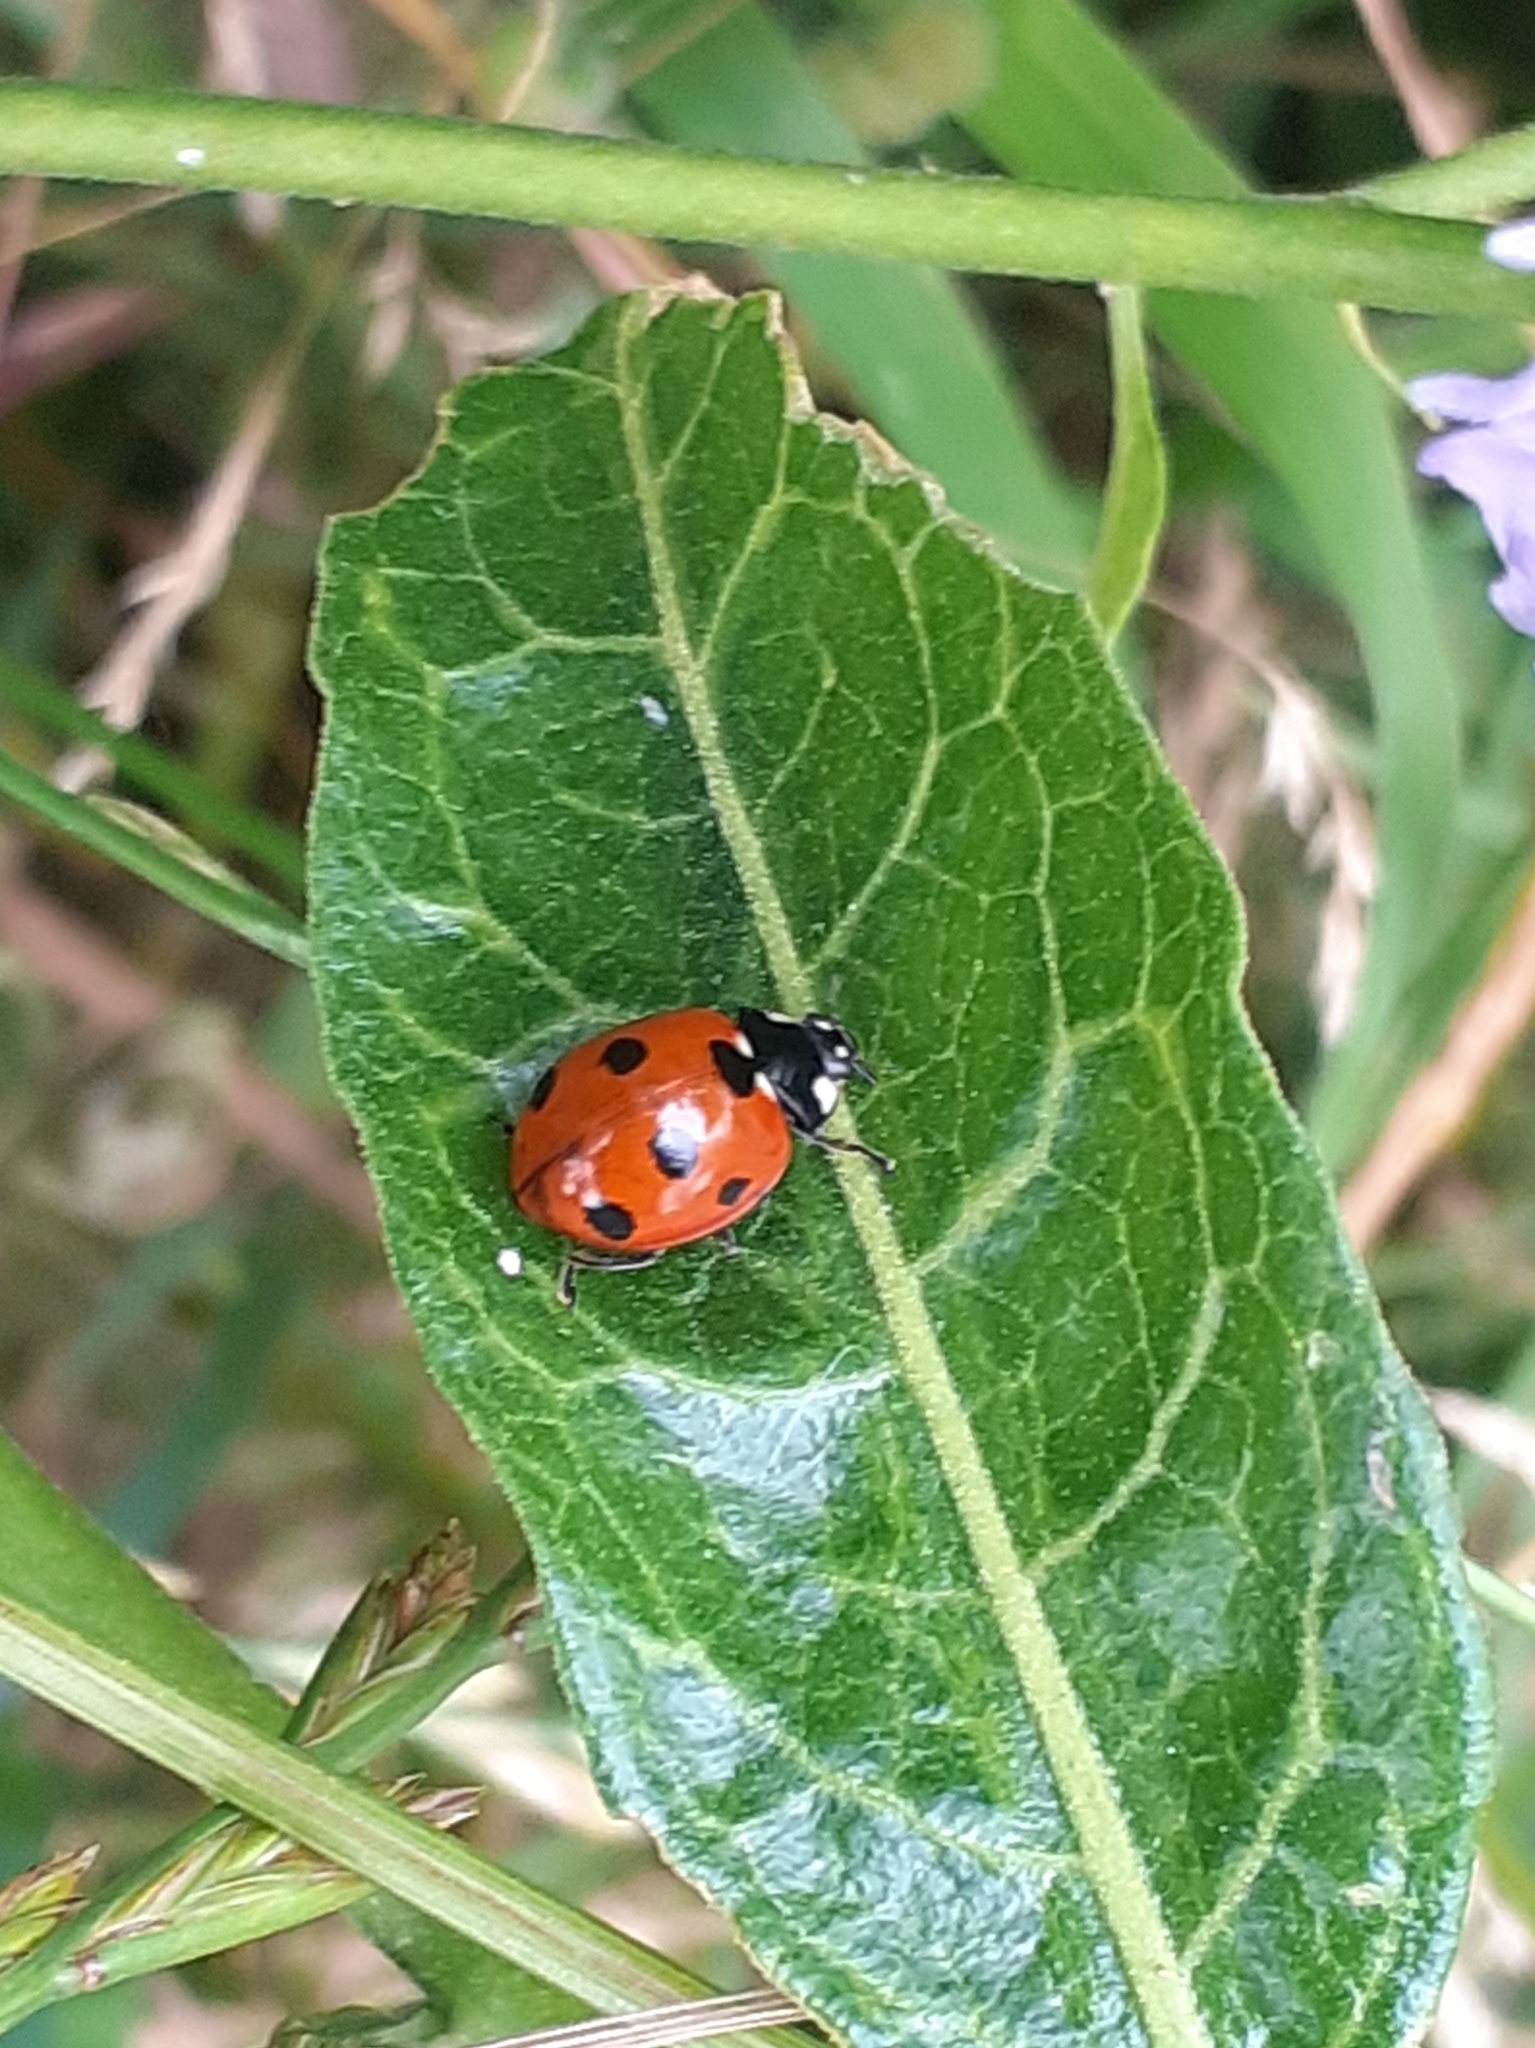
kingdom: Animalia
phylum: Arthropoda
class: Insecta
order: Coleoptera
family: Coccinellidae
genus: Coccinella
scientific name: Coccinella septempunctata
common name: Sevenspotted lady beetle
